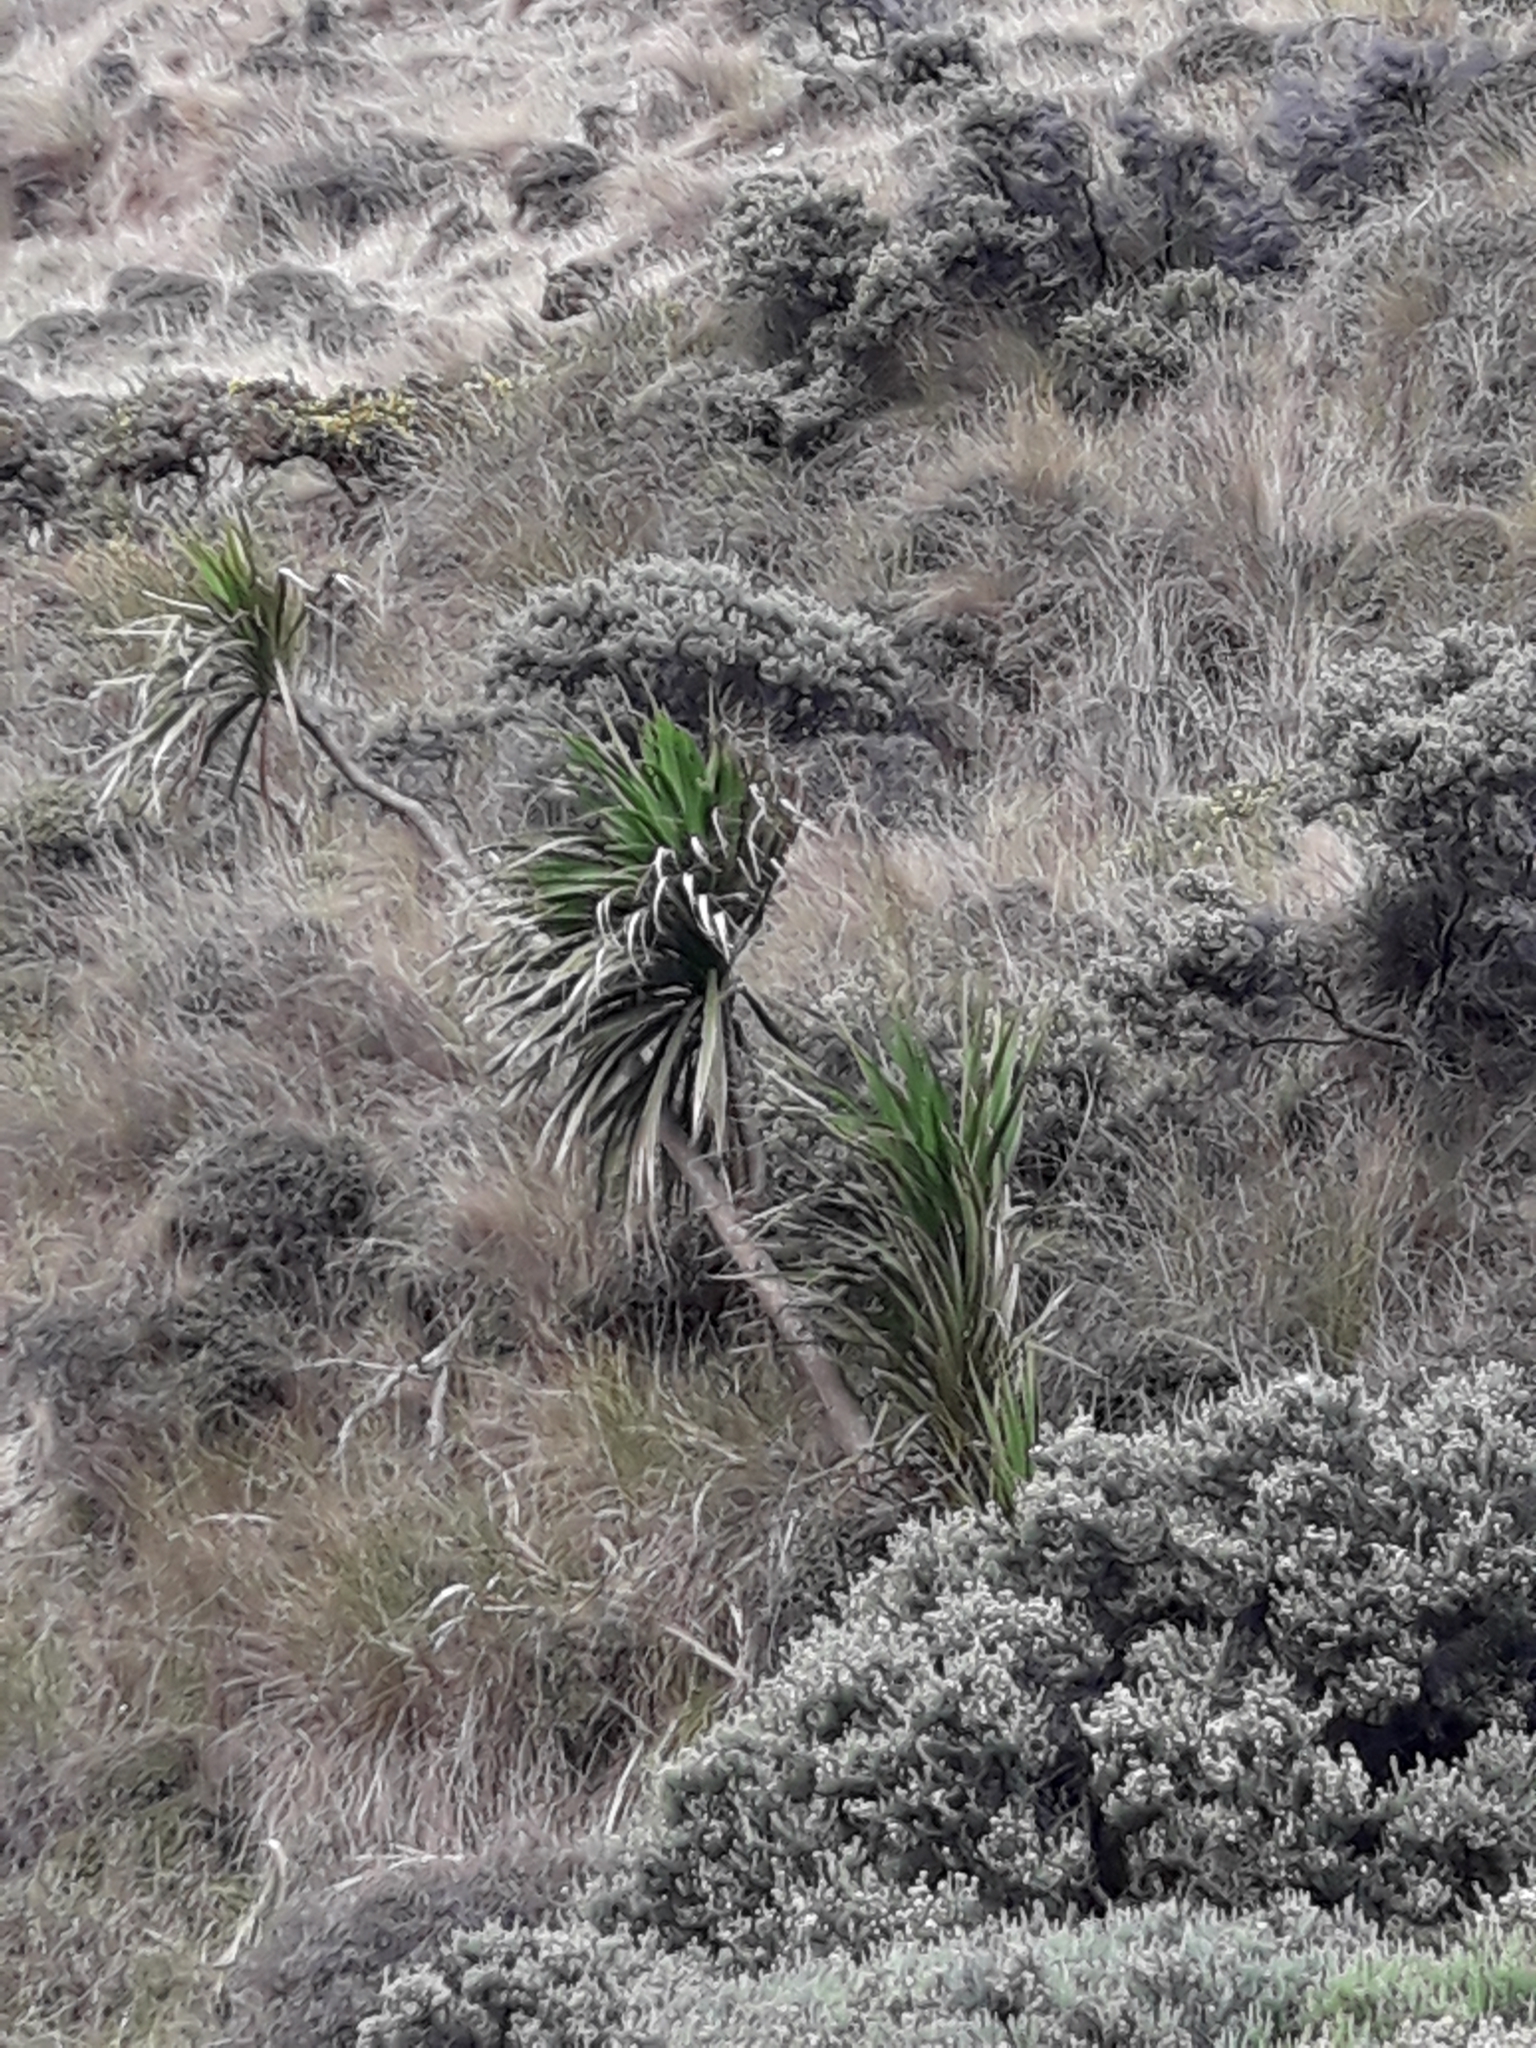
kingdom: Plantae
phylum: Tracheophyta
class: Liliopsida
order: Asparagales
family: Asparagaceae
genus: Cordyline
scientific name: Cordyline australis
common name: Cabbage-palm
